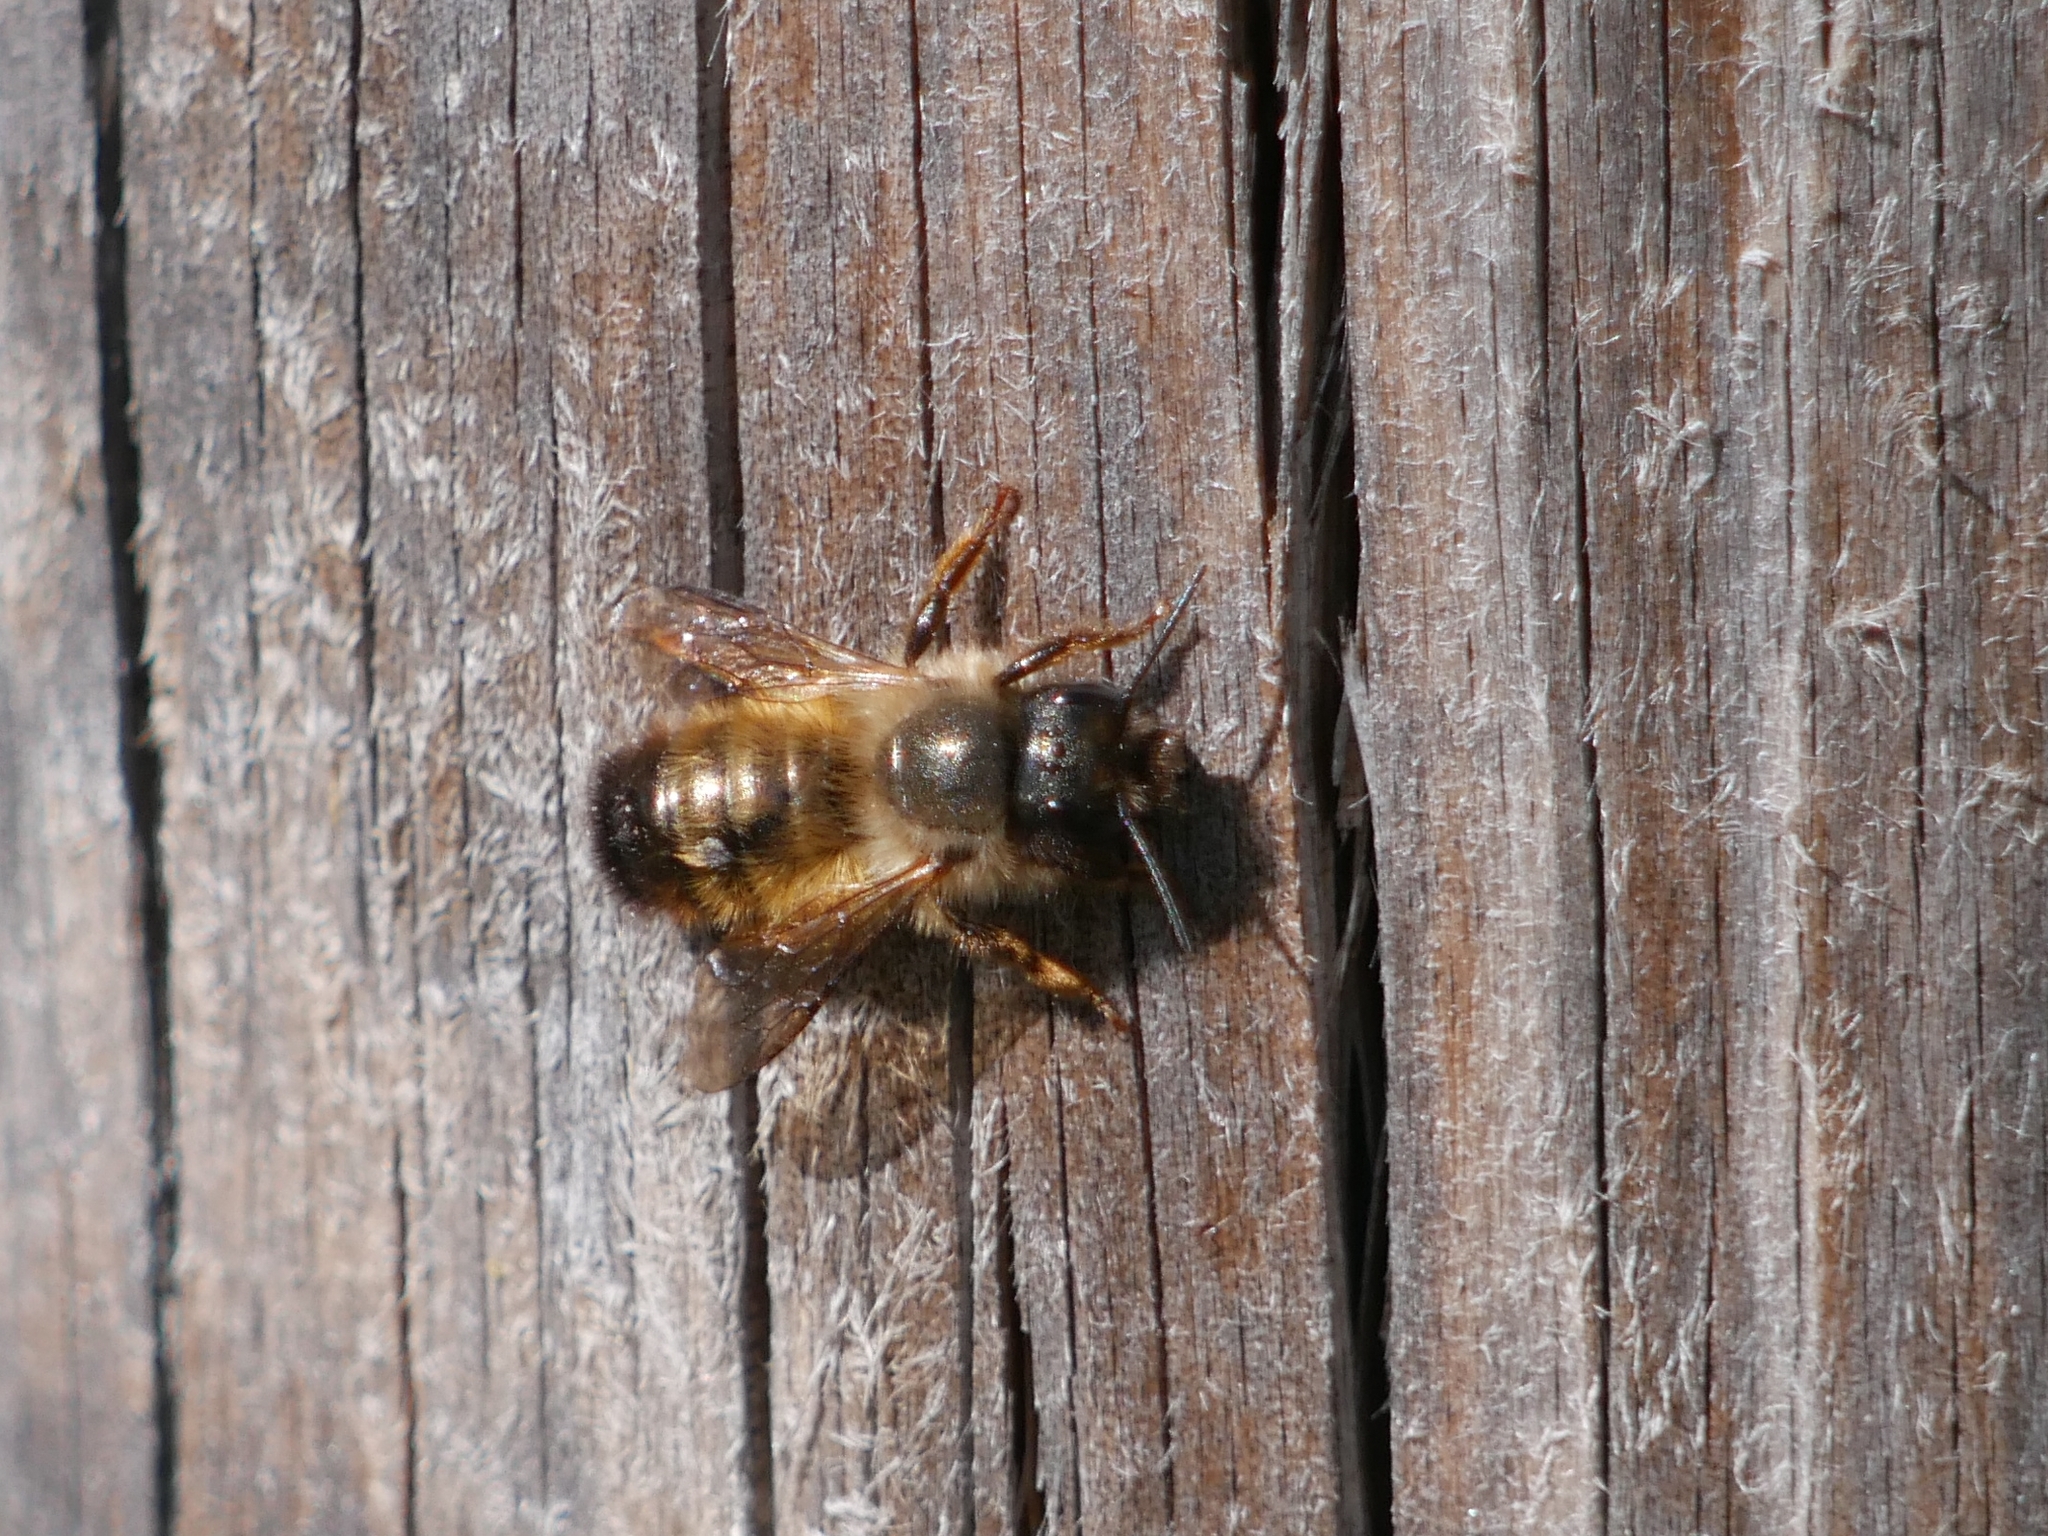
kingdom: Animalia
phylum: Arthropoda
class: Insecta
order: Hymenoptera
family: Megachilidae
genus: Osmia
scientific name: Osmia bicornis
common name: Red mason bee
